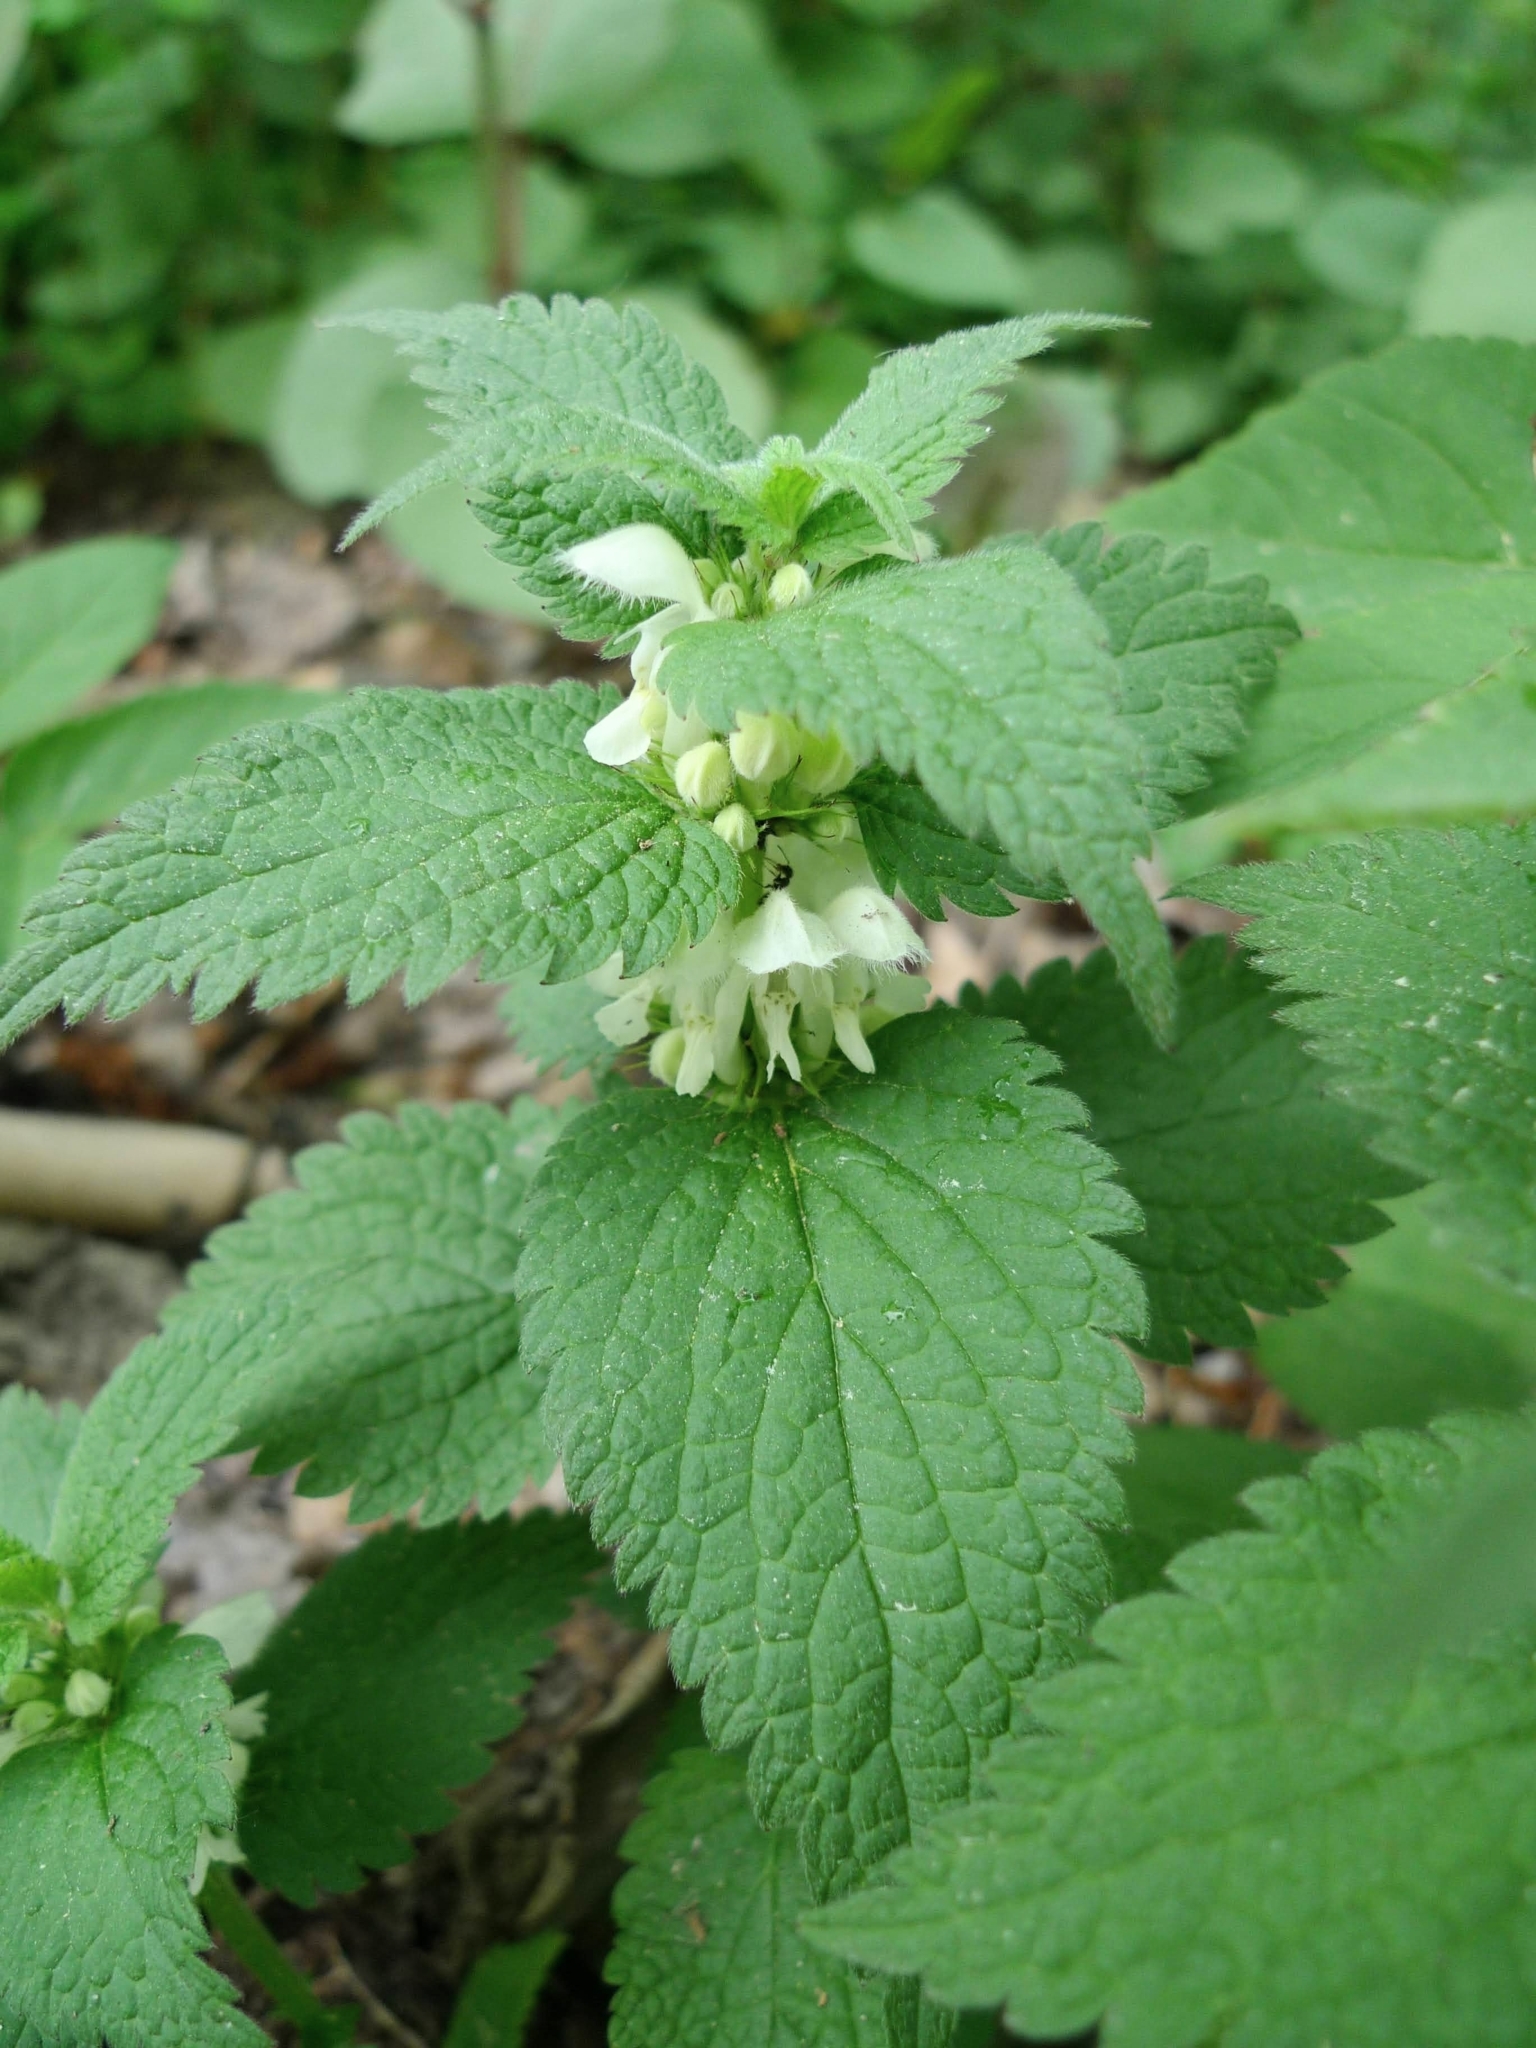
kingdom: Plantae
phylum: Tracheophyta
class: Magnoliopsida
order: Lamiales
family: Lamiaceae
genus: Lamium
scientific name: Lamium album
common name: White dead-nettle
